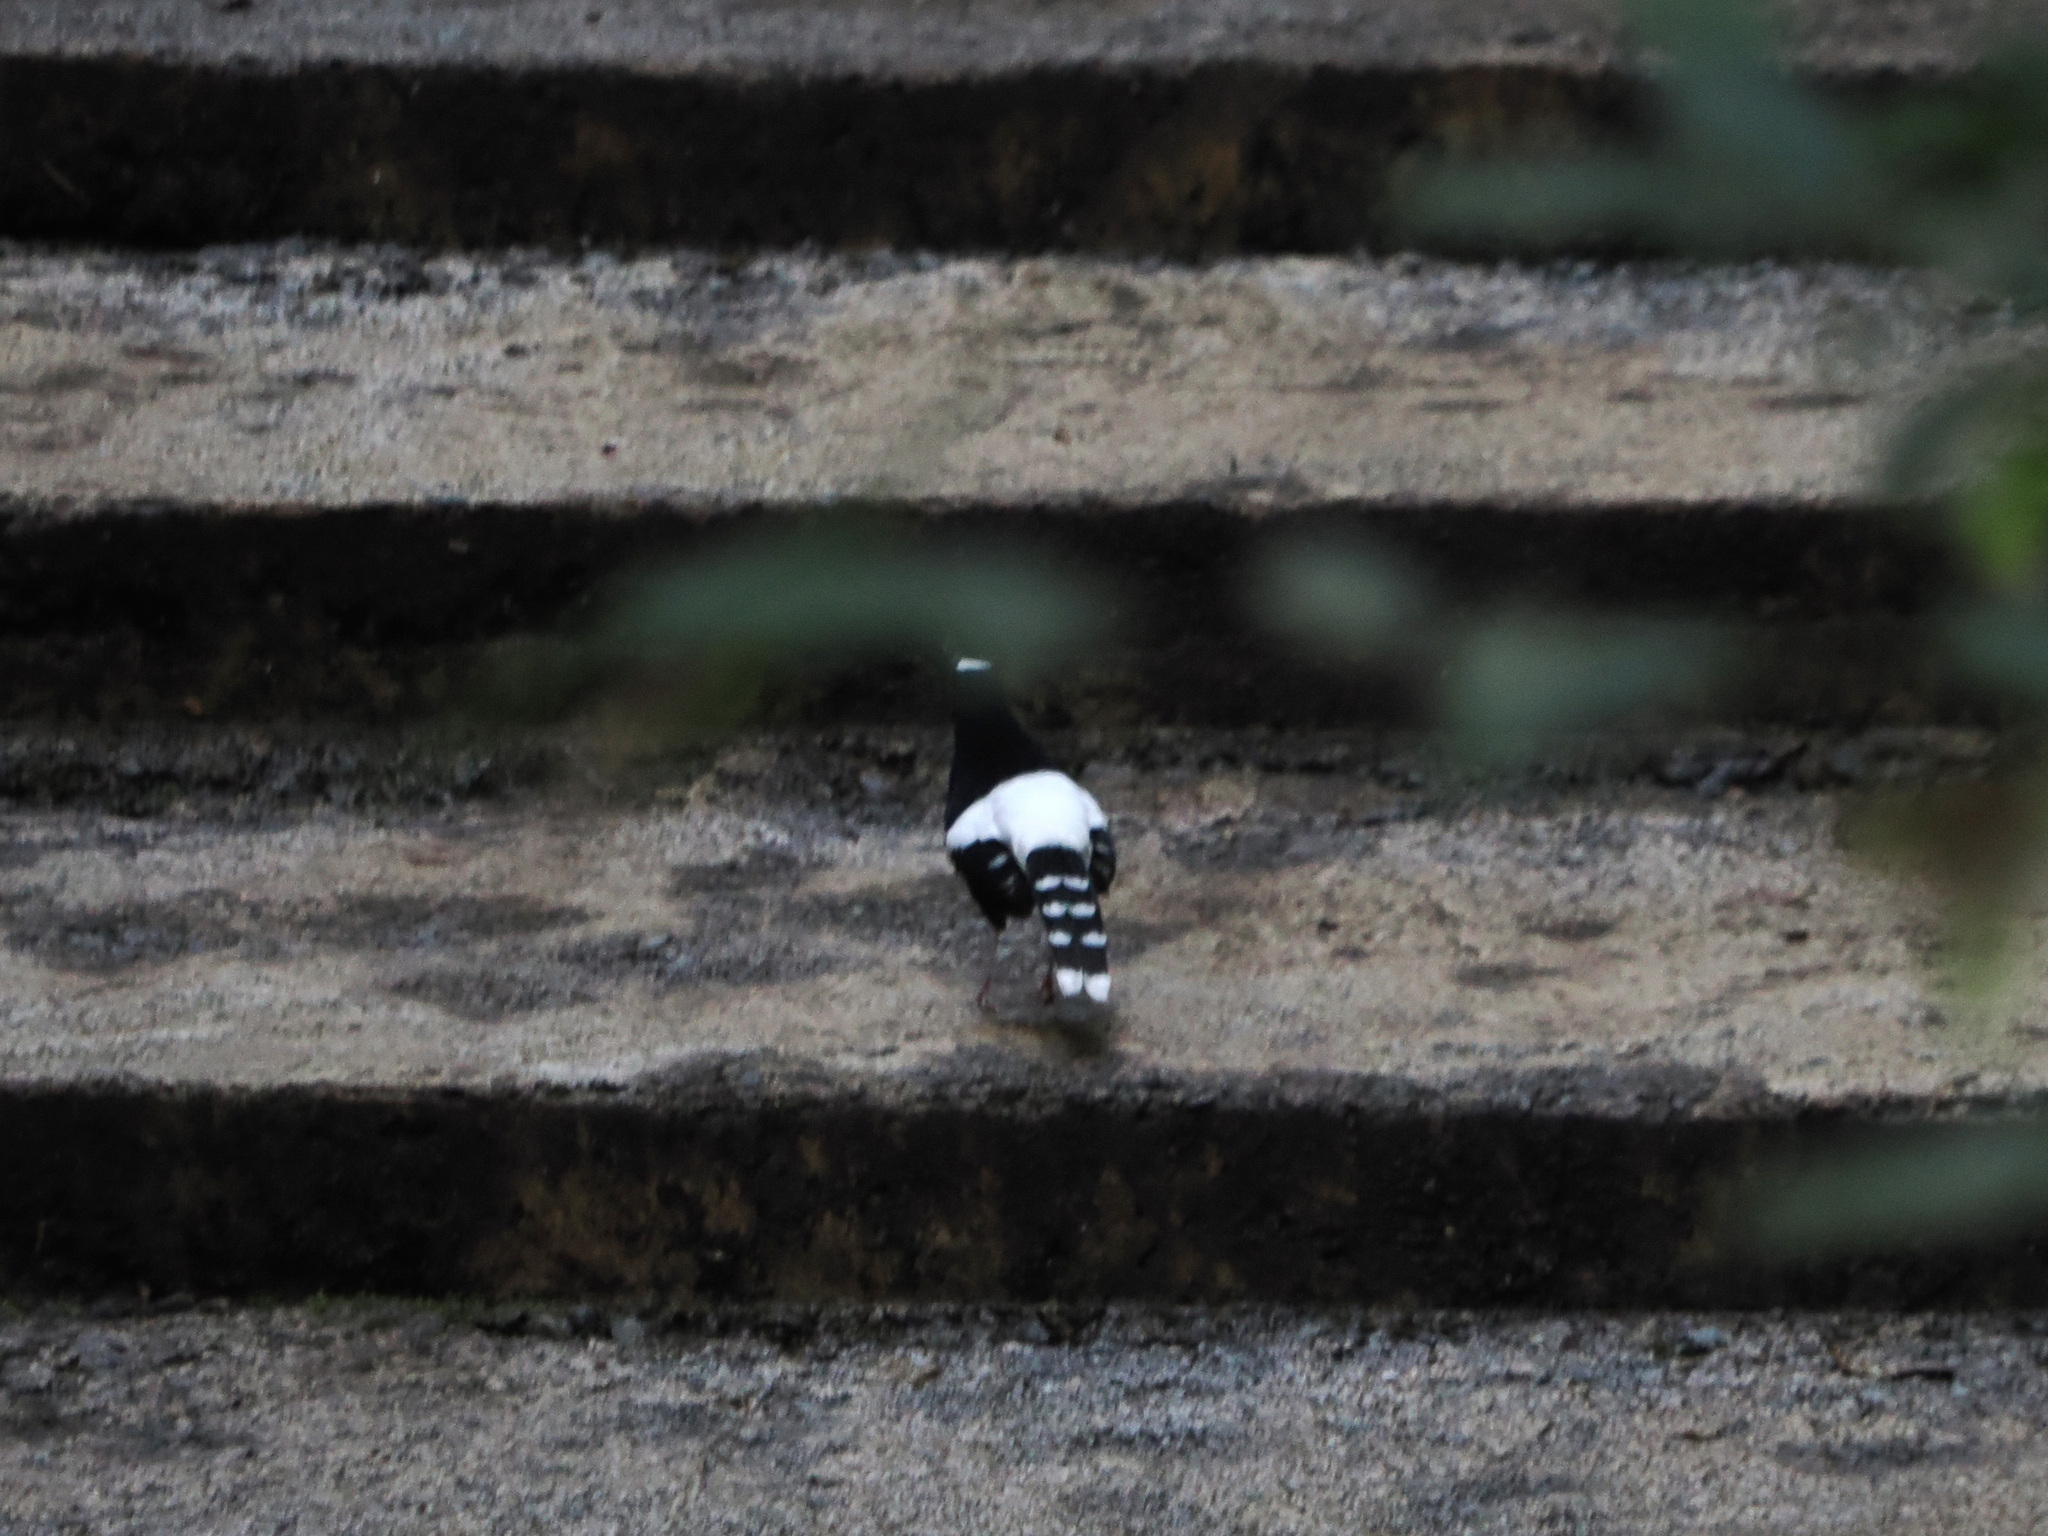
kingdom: Animalia
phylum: Chordata
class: Aves
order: Passeriformes
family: Muscicapidae
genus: Enicurus
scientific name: Enicurus borneensis
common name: Bornean forktail
